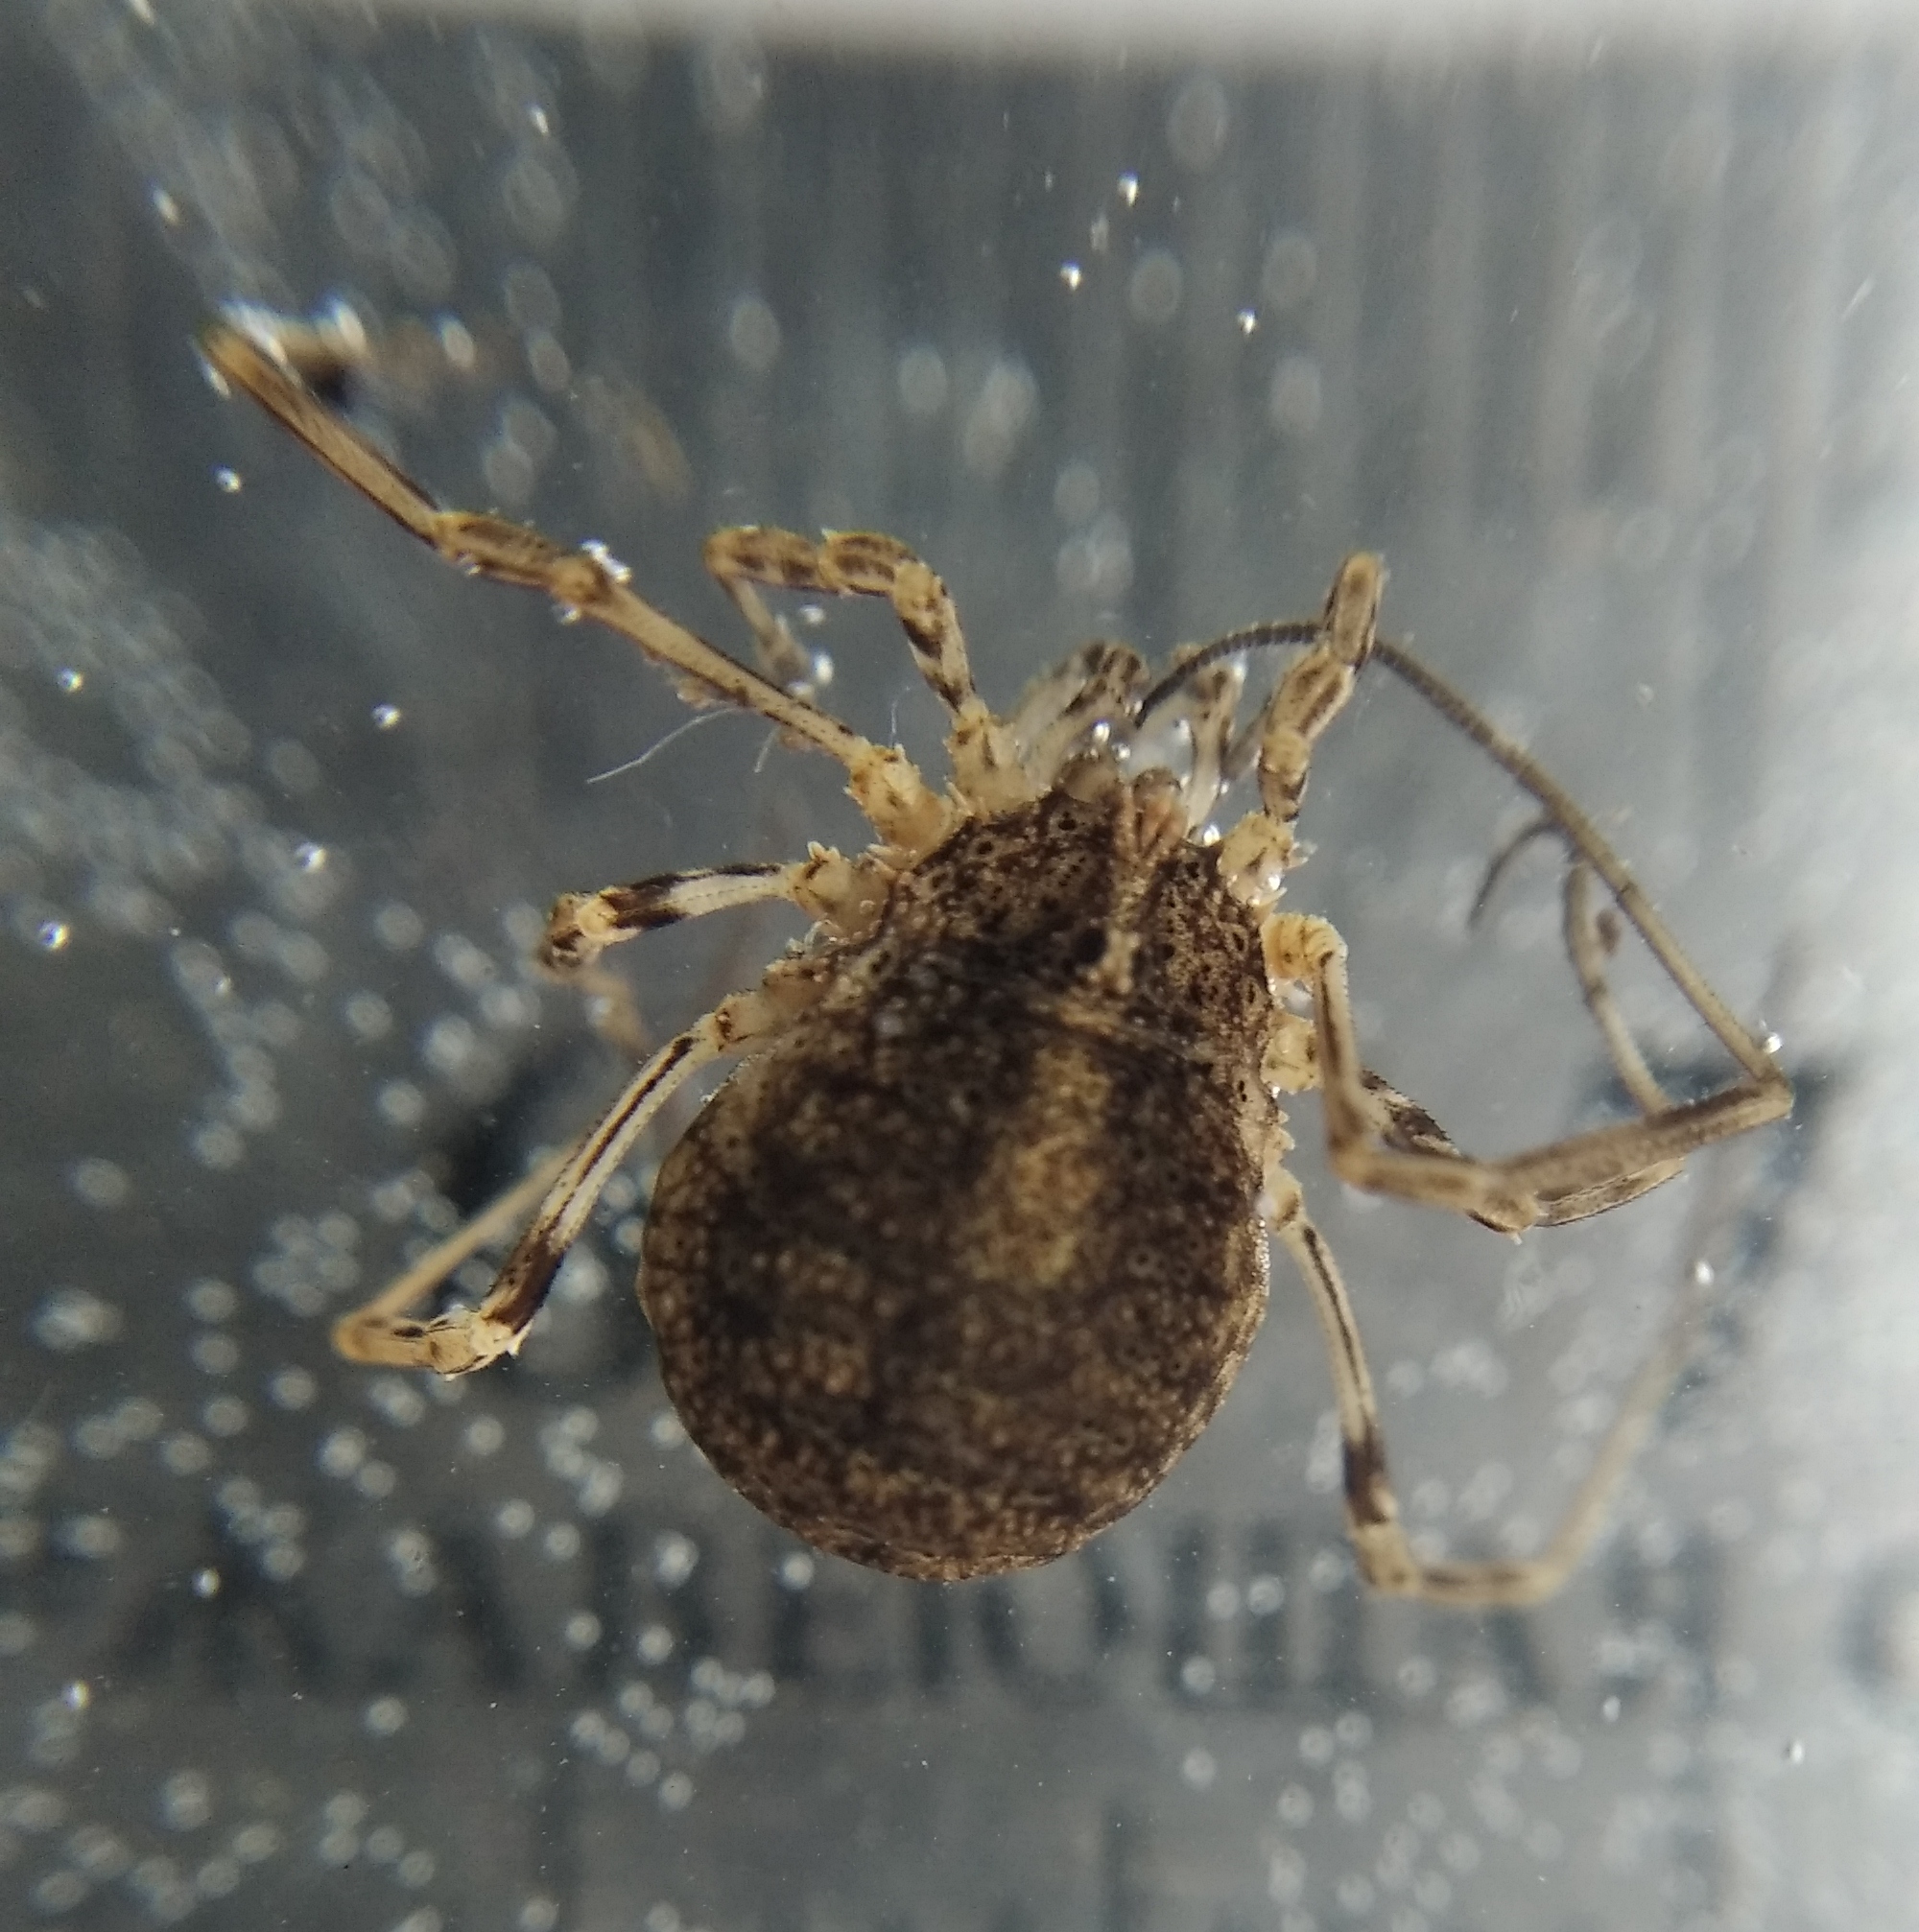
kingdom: Animalia
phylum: Arthropoda
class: Arachnida
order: Opiliones
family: Phalangiidae
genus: Odiellus
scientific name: Odiellus lendlii
